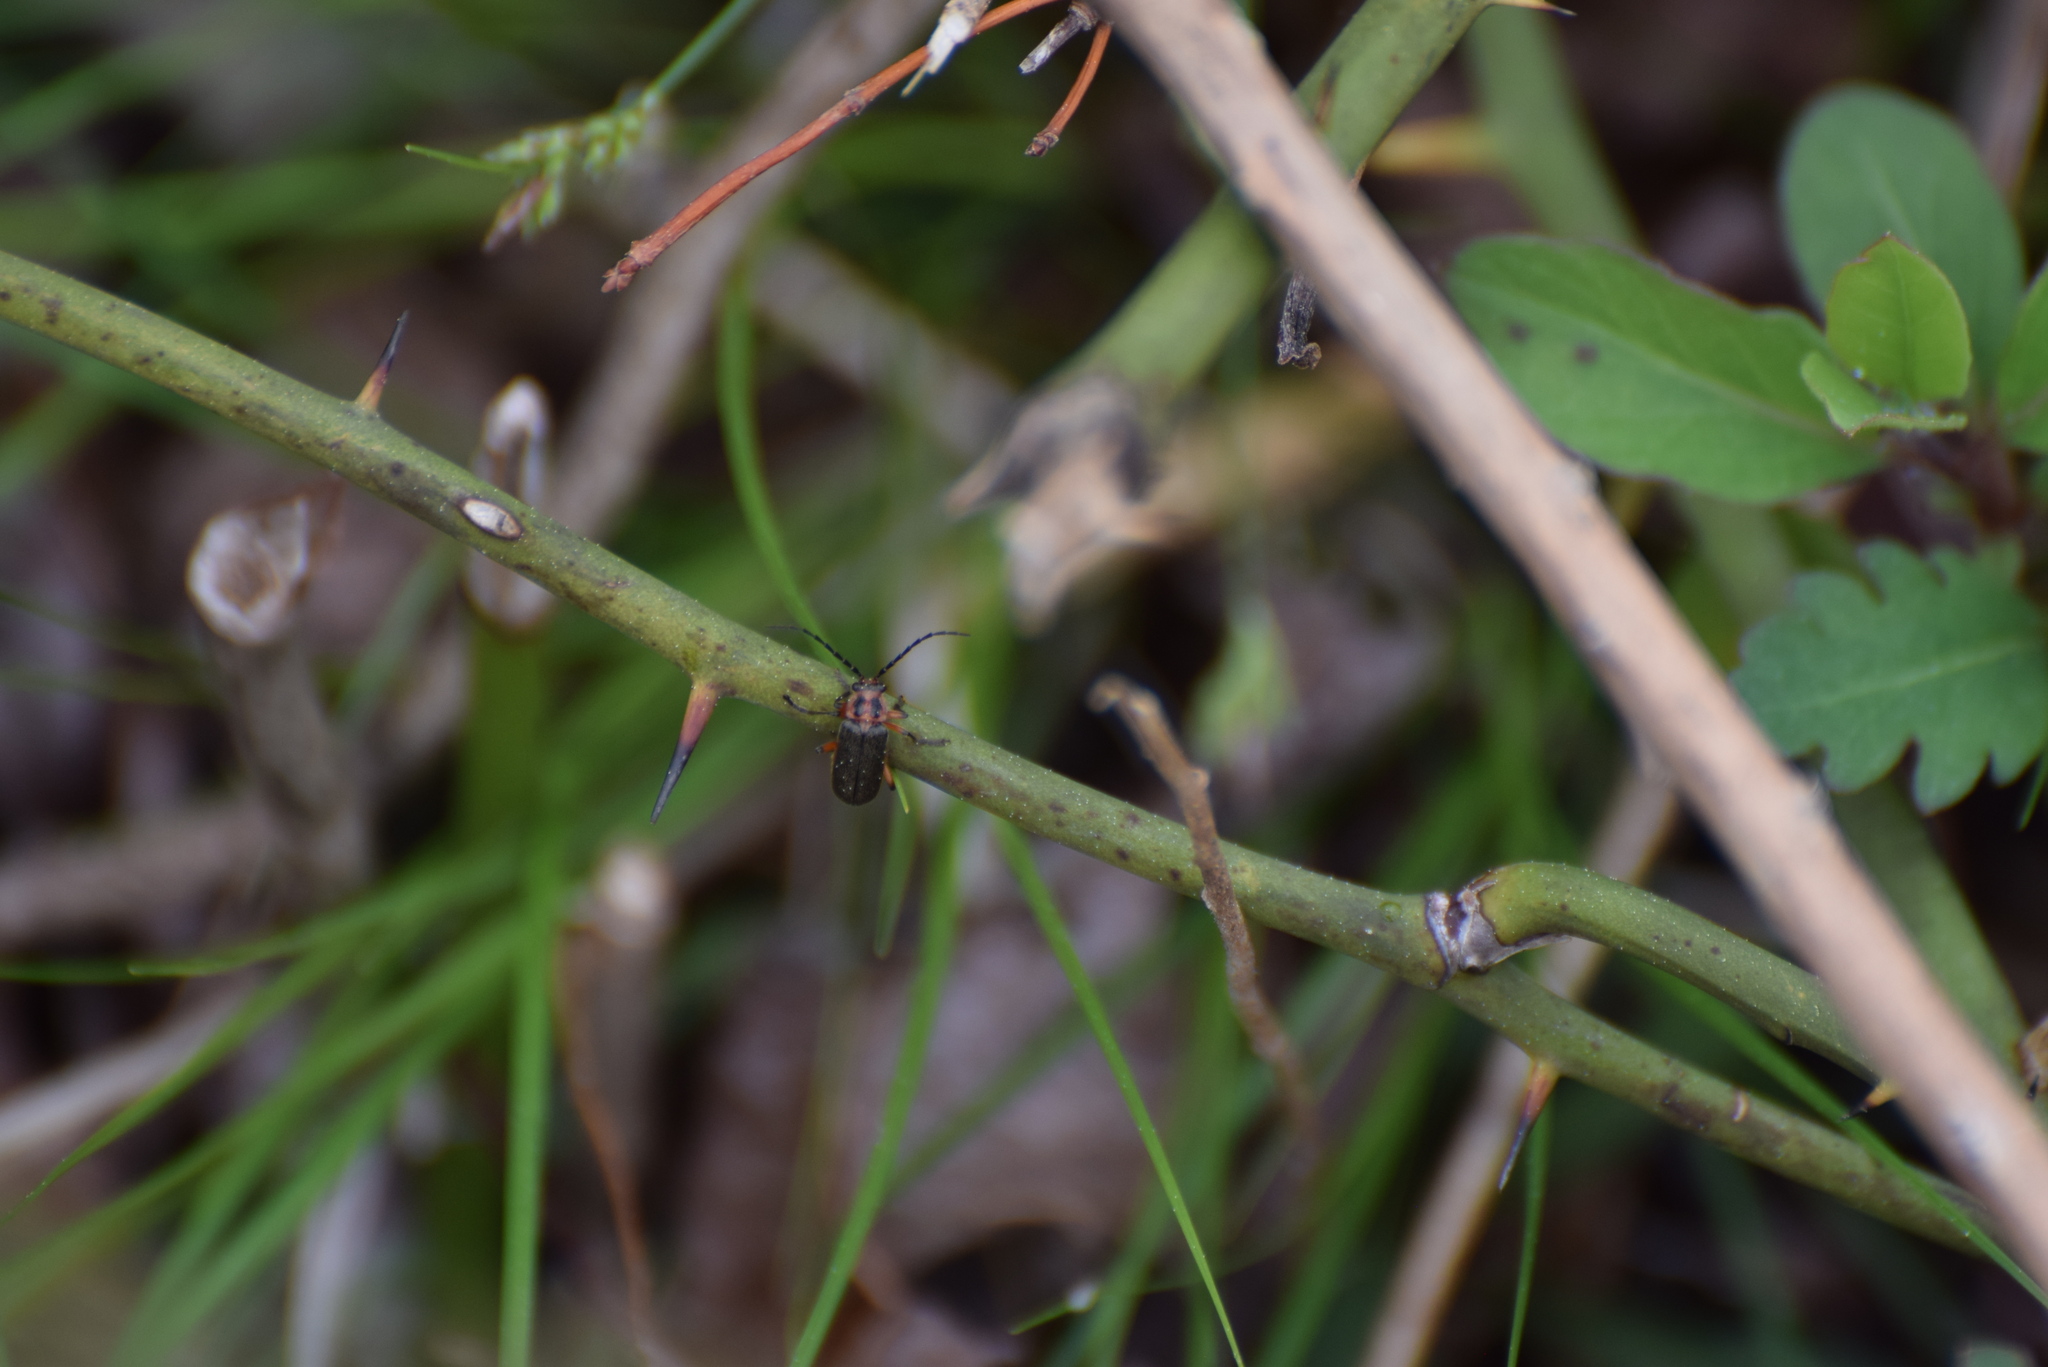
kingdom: Animalia
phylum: Arthropoda
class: Insecta
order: Coleoptera
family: Cantharidae
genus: Atalantycha
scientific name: Atalantycha bilineata
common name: Two-lined leatherwing
